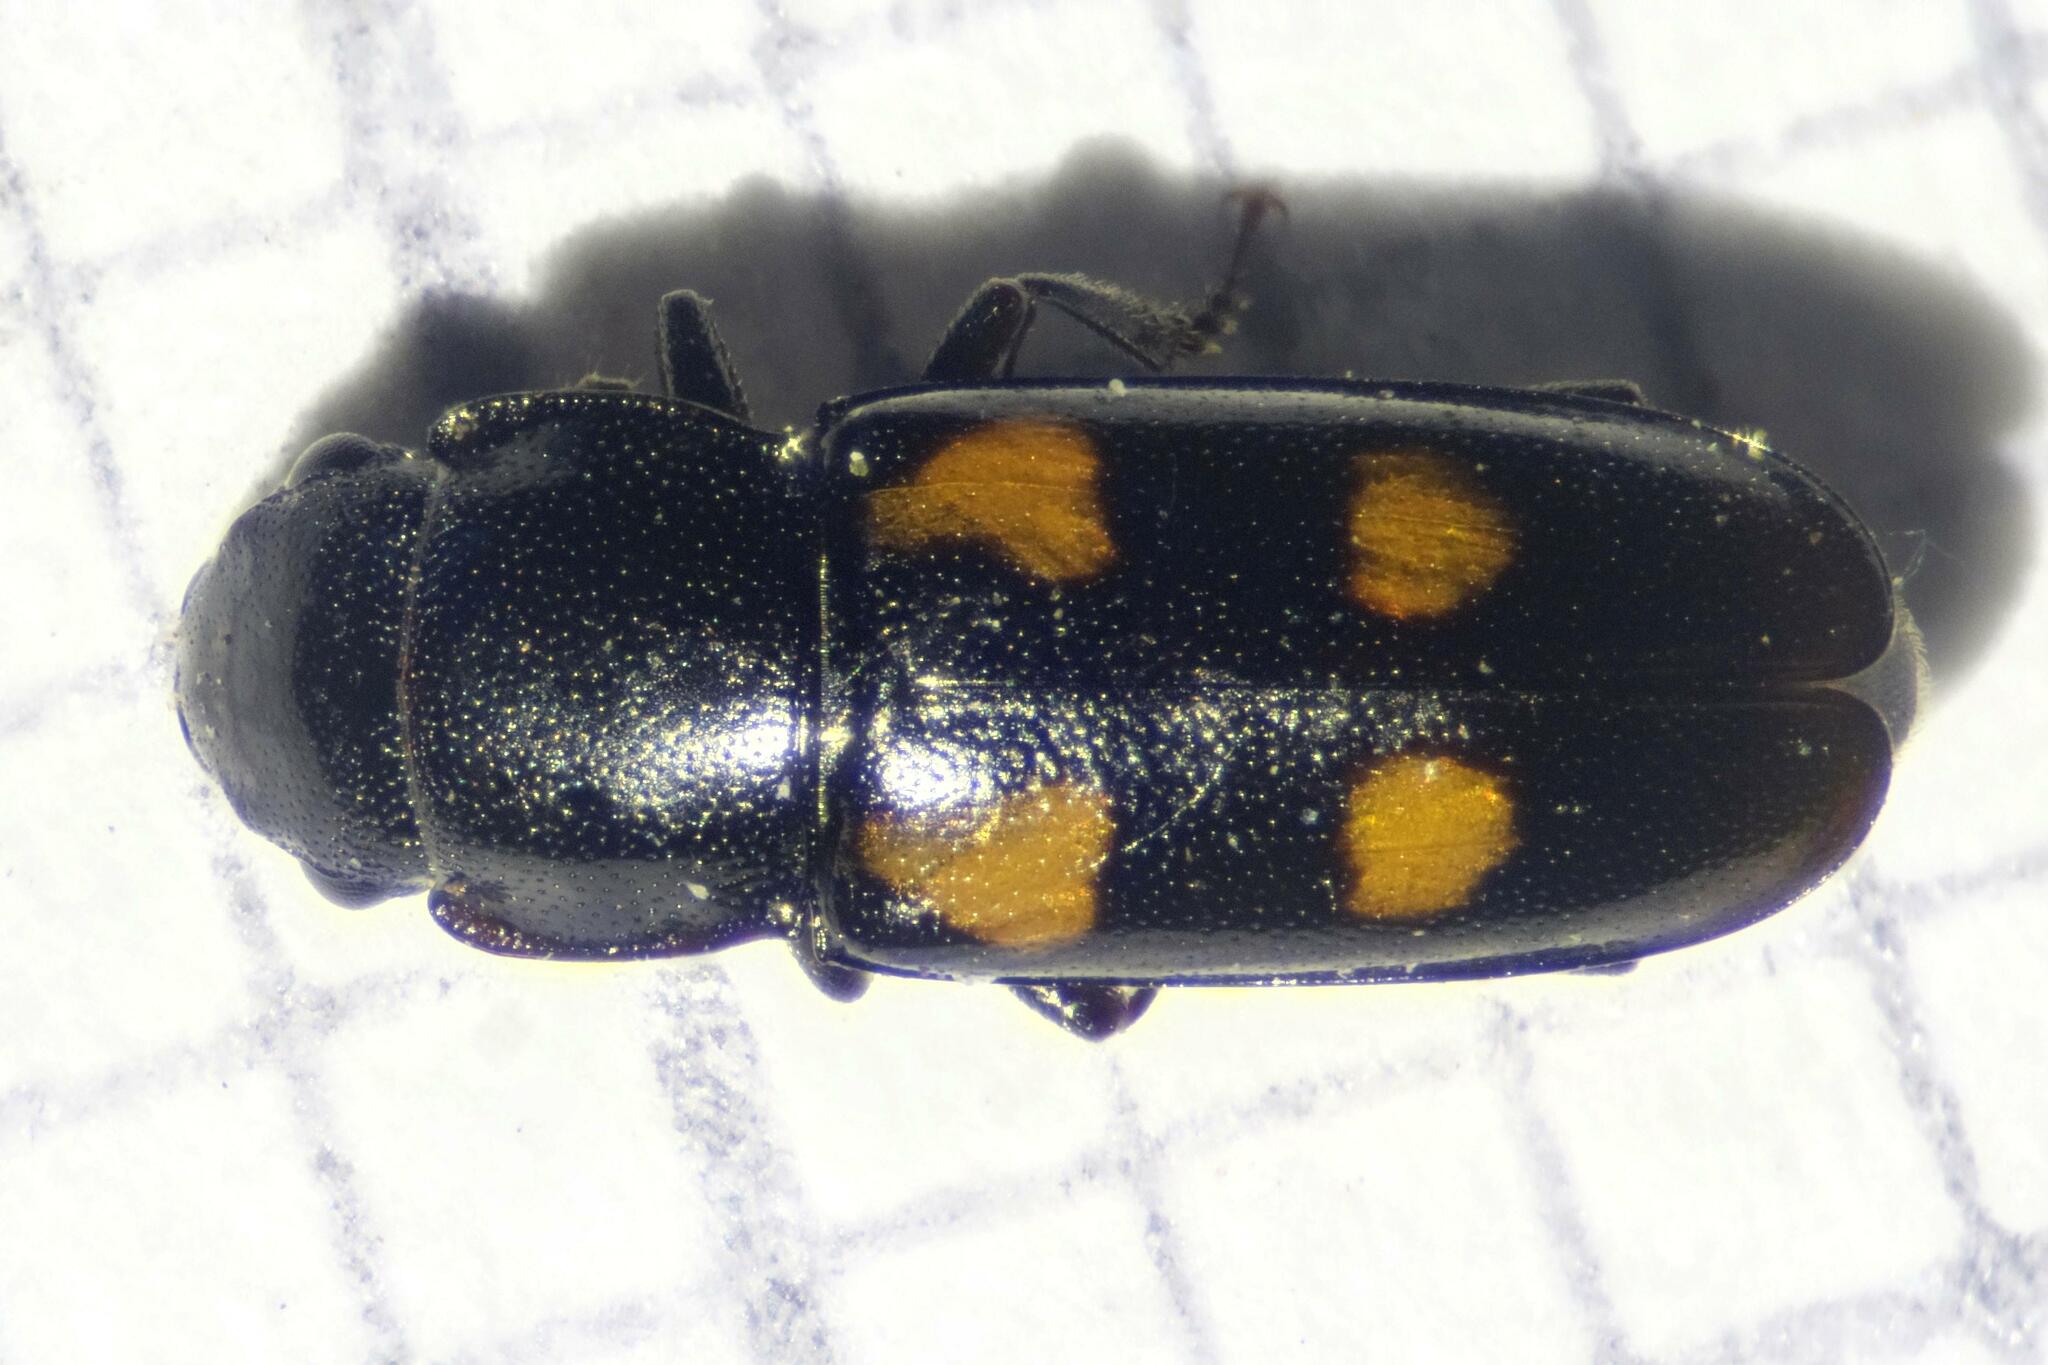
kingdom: Animalia
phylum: Arthropoda
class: Insecta
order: Coleoptera
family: Nitidulidae
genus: Glischrochilus
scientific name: Glischrochilus quadripunctatus
